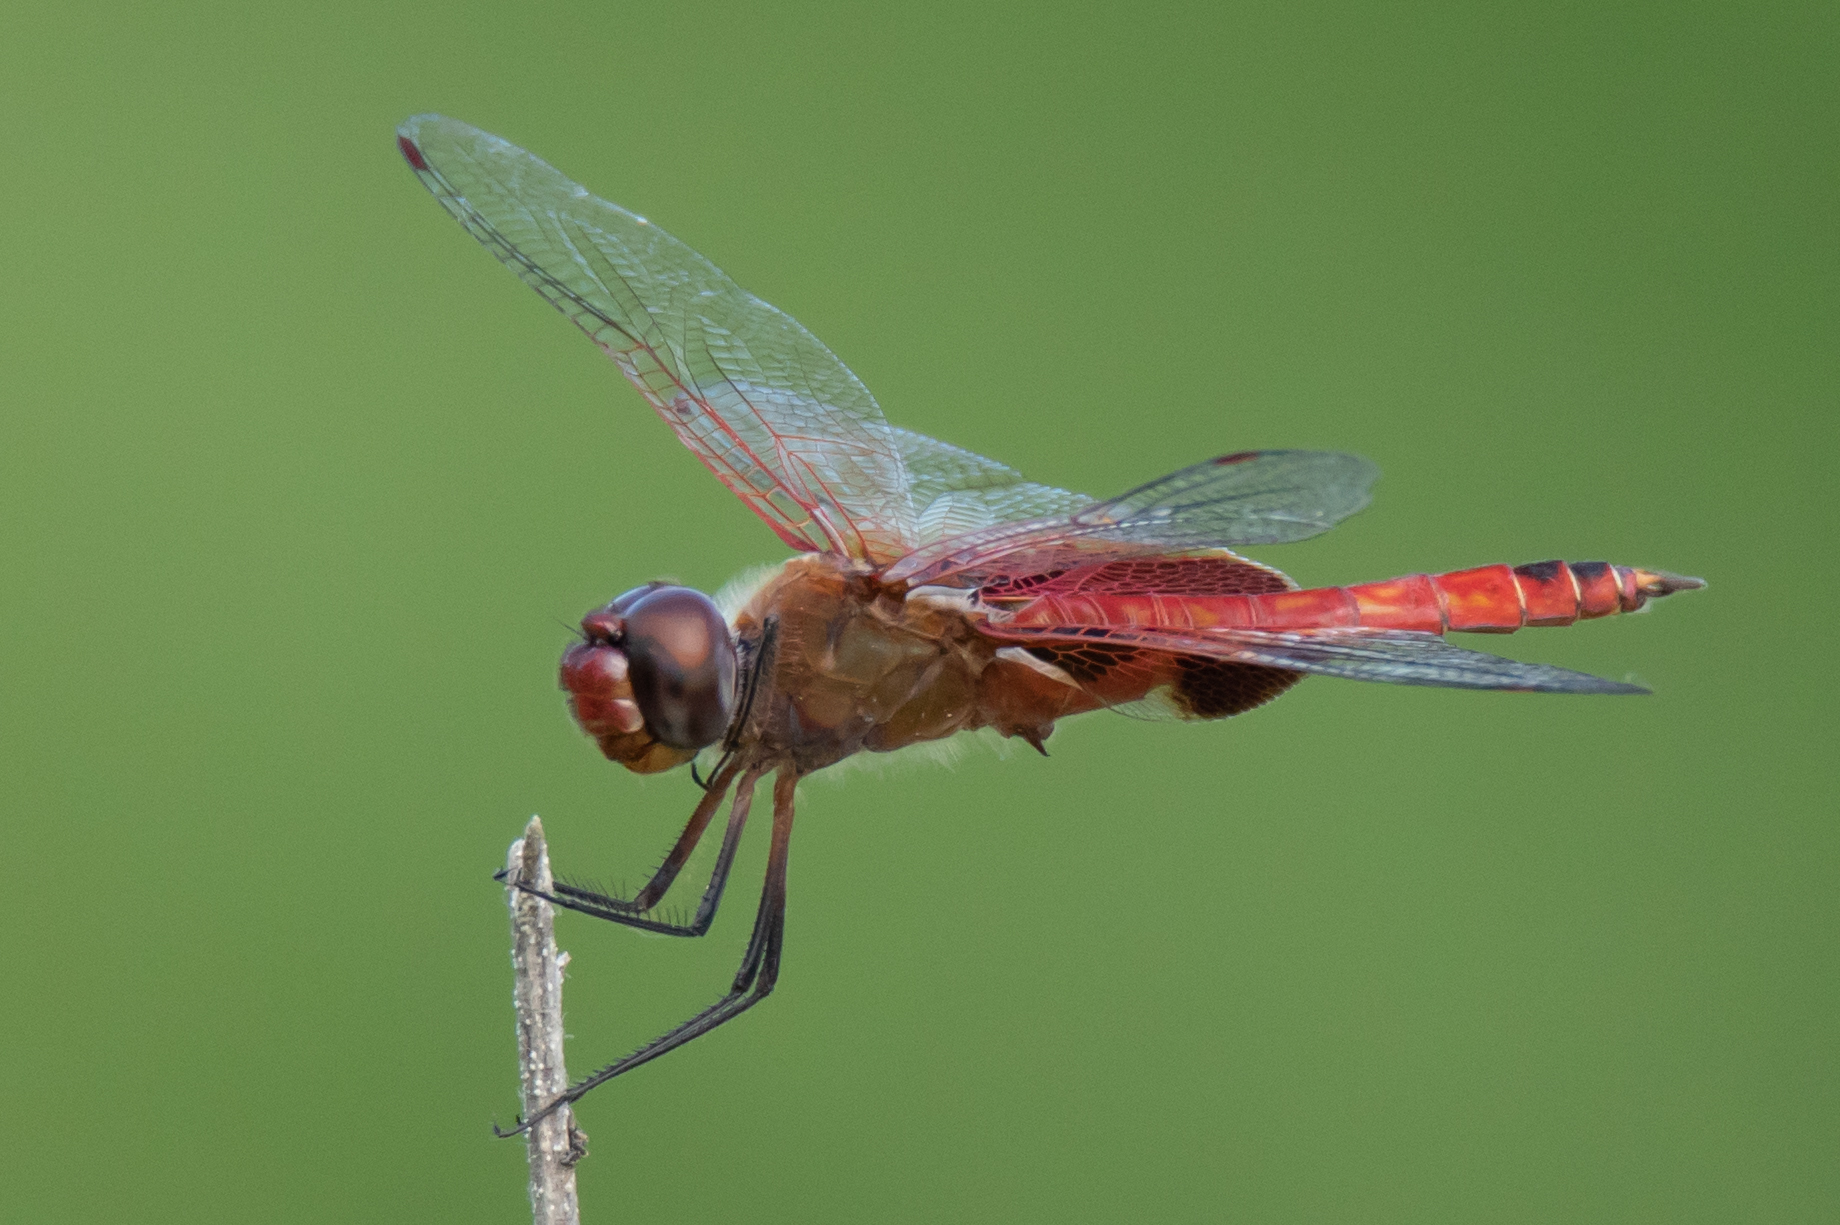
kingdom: Animalia
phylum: Arthropoda
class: Insecta
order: Odonata
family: Libellulidae
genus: Tramea
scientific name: Tramea onusta
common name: Red saddlebags
